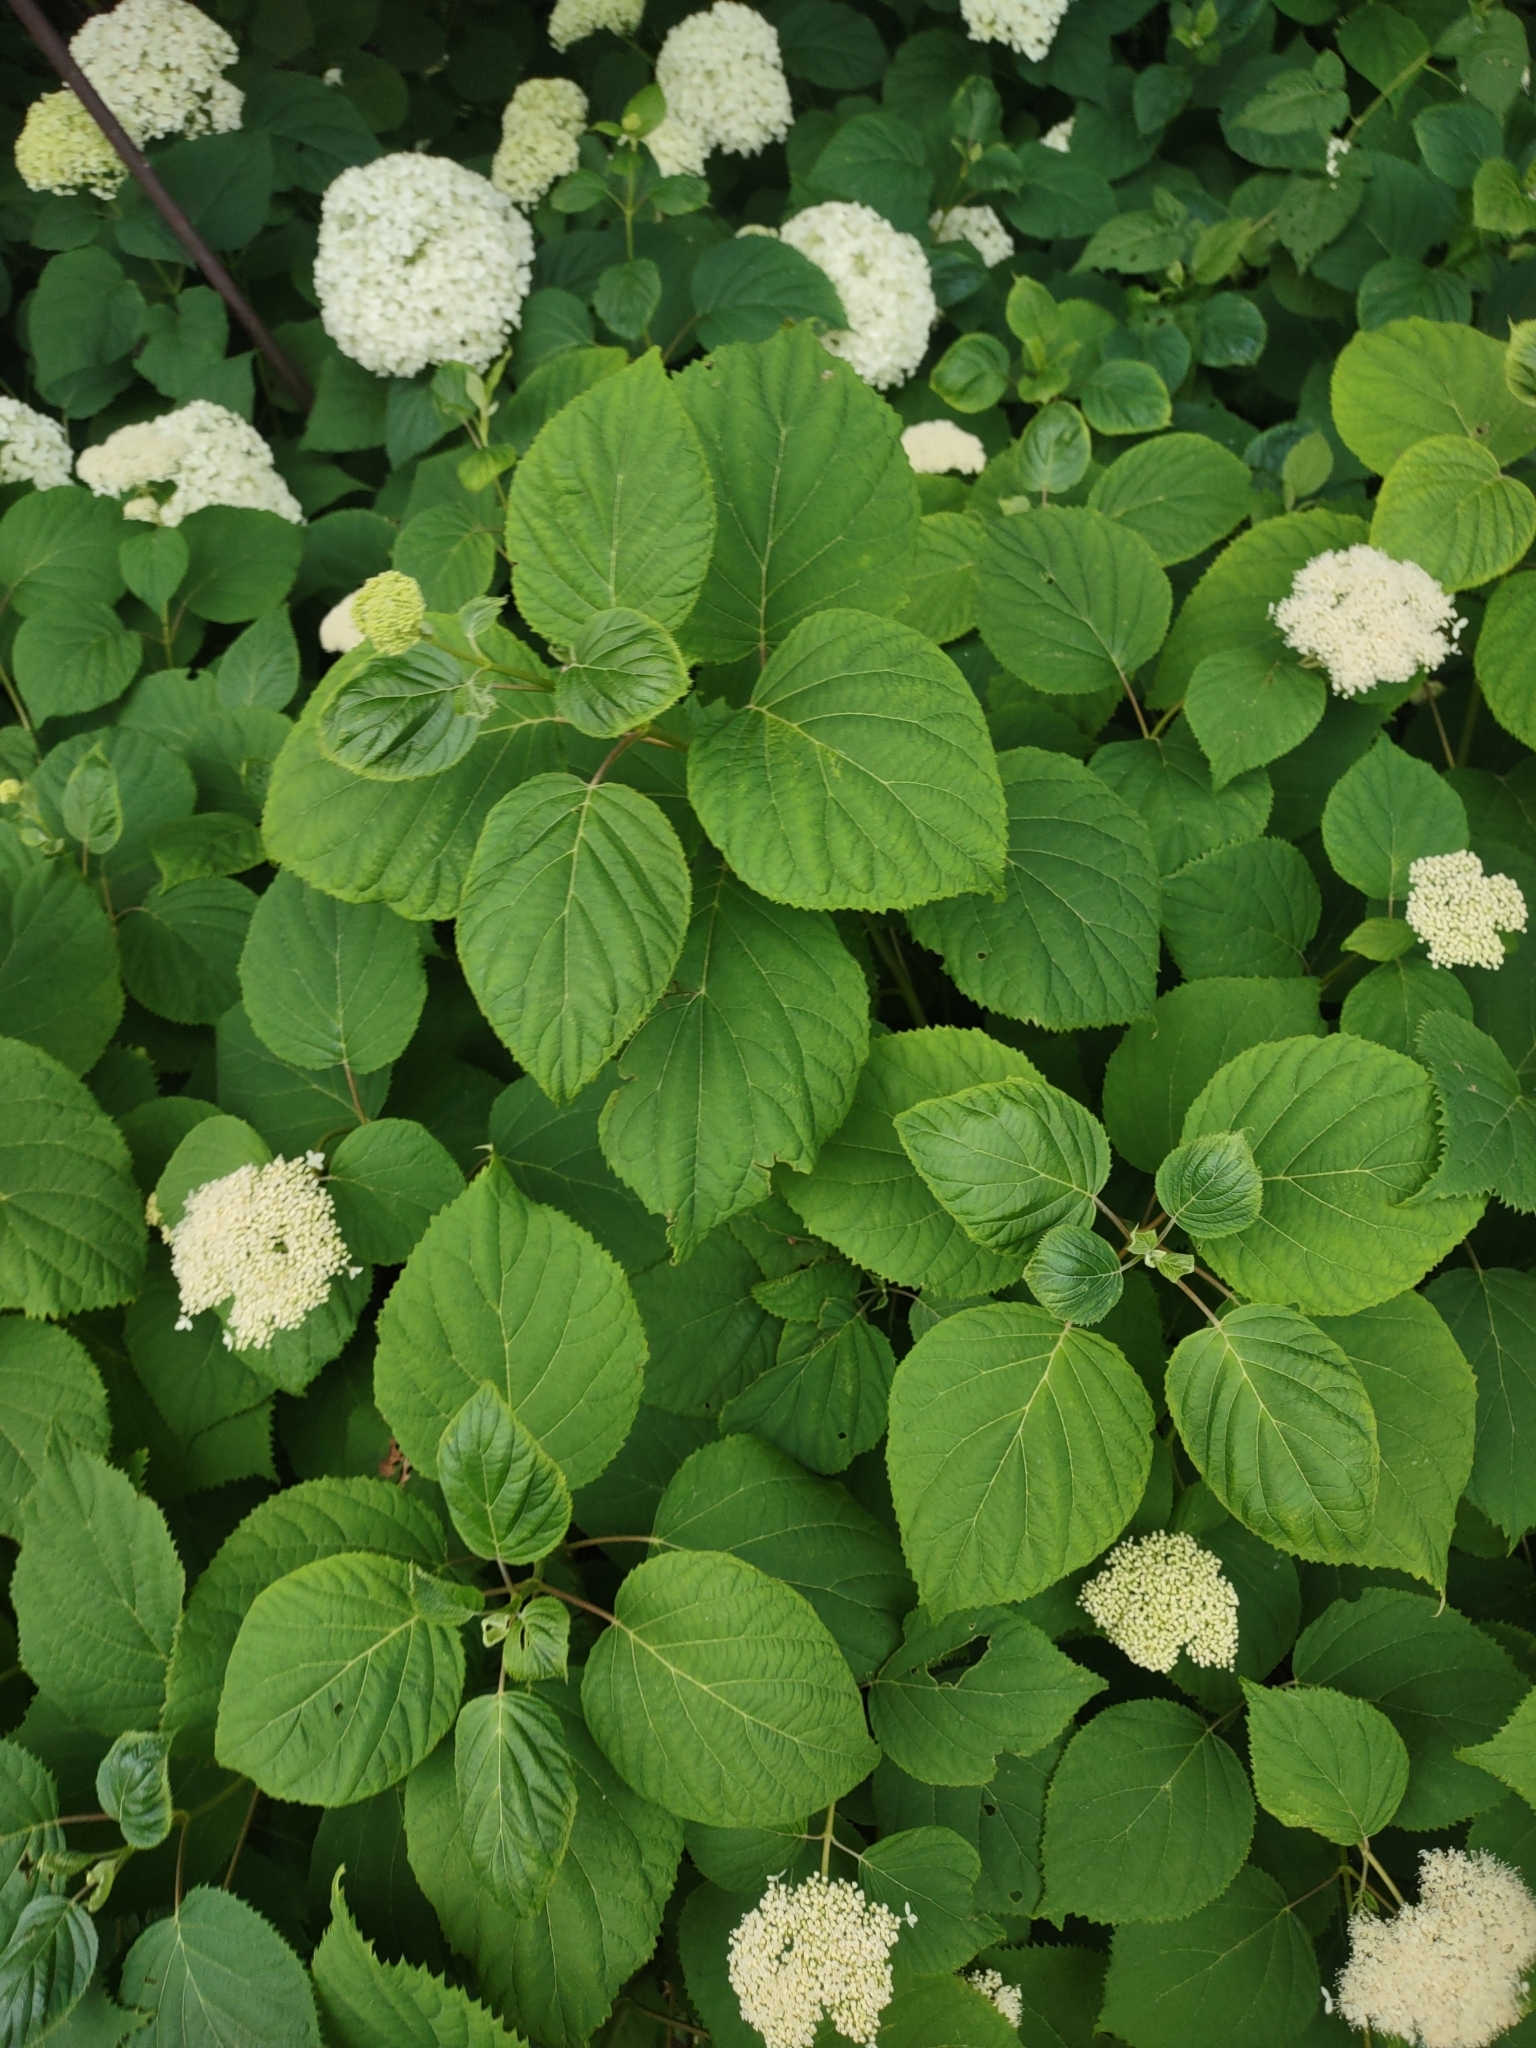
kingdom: Animalia
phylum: Arthropoda
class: Insecta
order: Hymenoptera
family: Apidae
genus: Bombus
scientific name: Bombus griseocollis
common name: Brown-belted bumble bee
